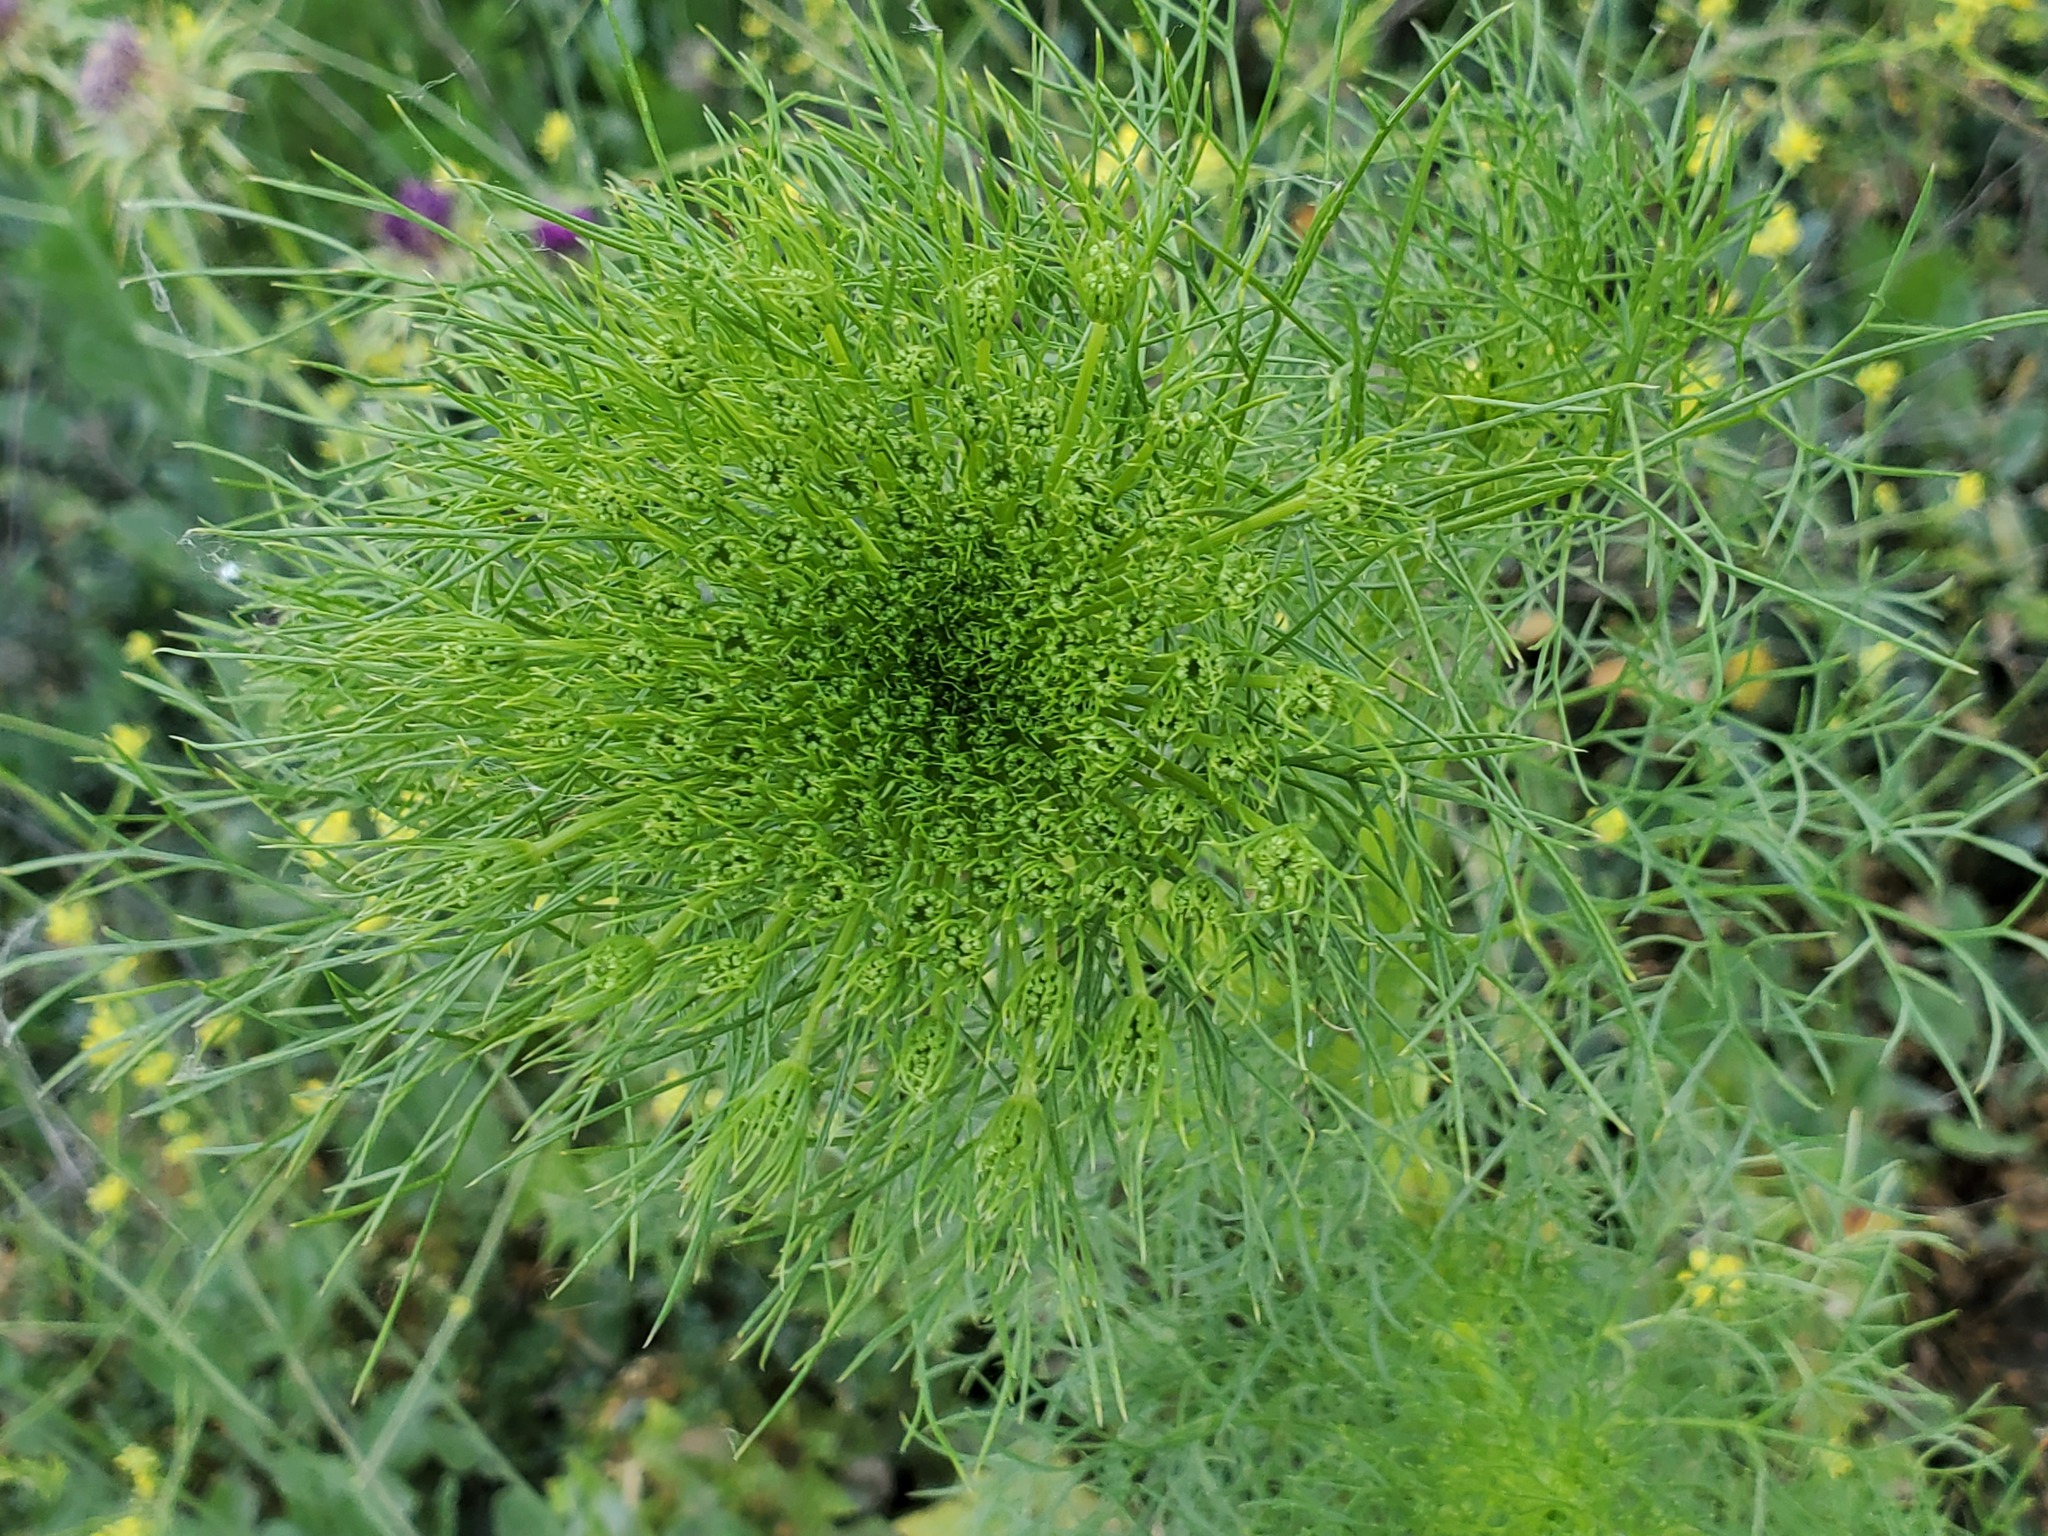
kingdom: Plantae
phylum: Tracheophyta
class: Magnoliopsida
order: Apiales
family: Apiaceae
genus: Visnaga
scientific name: Visnaga daucoides
